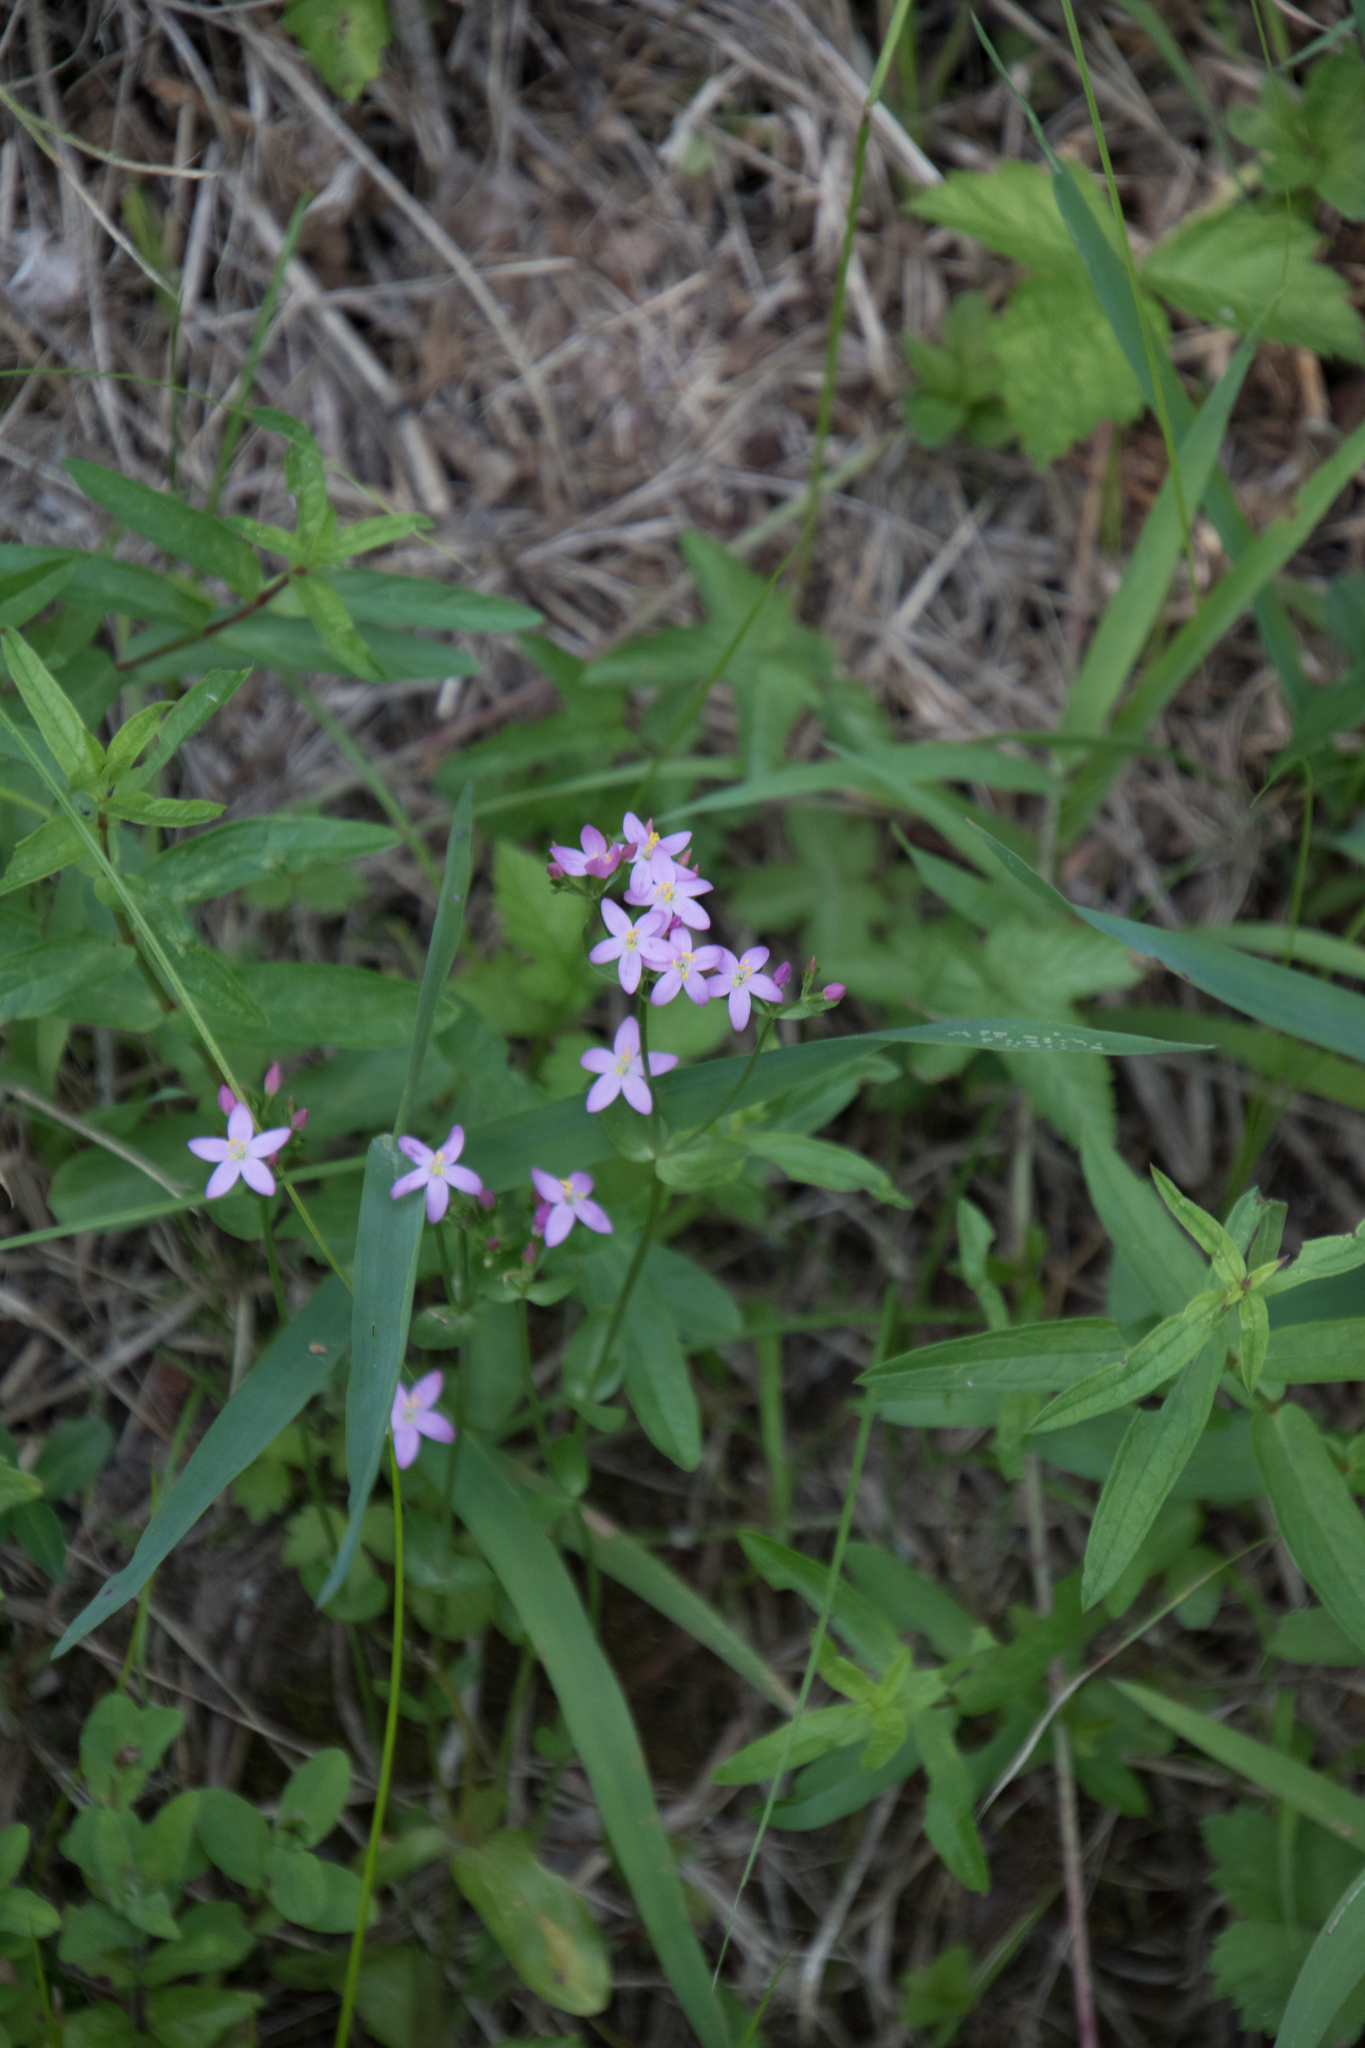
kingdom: Plantae
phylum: Tracheophyta
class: Magnoliopsida
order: Gentianales
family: Gentianaceae
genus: Centaurium
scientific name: Centaurium erythraea
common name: Common centaury
